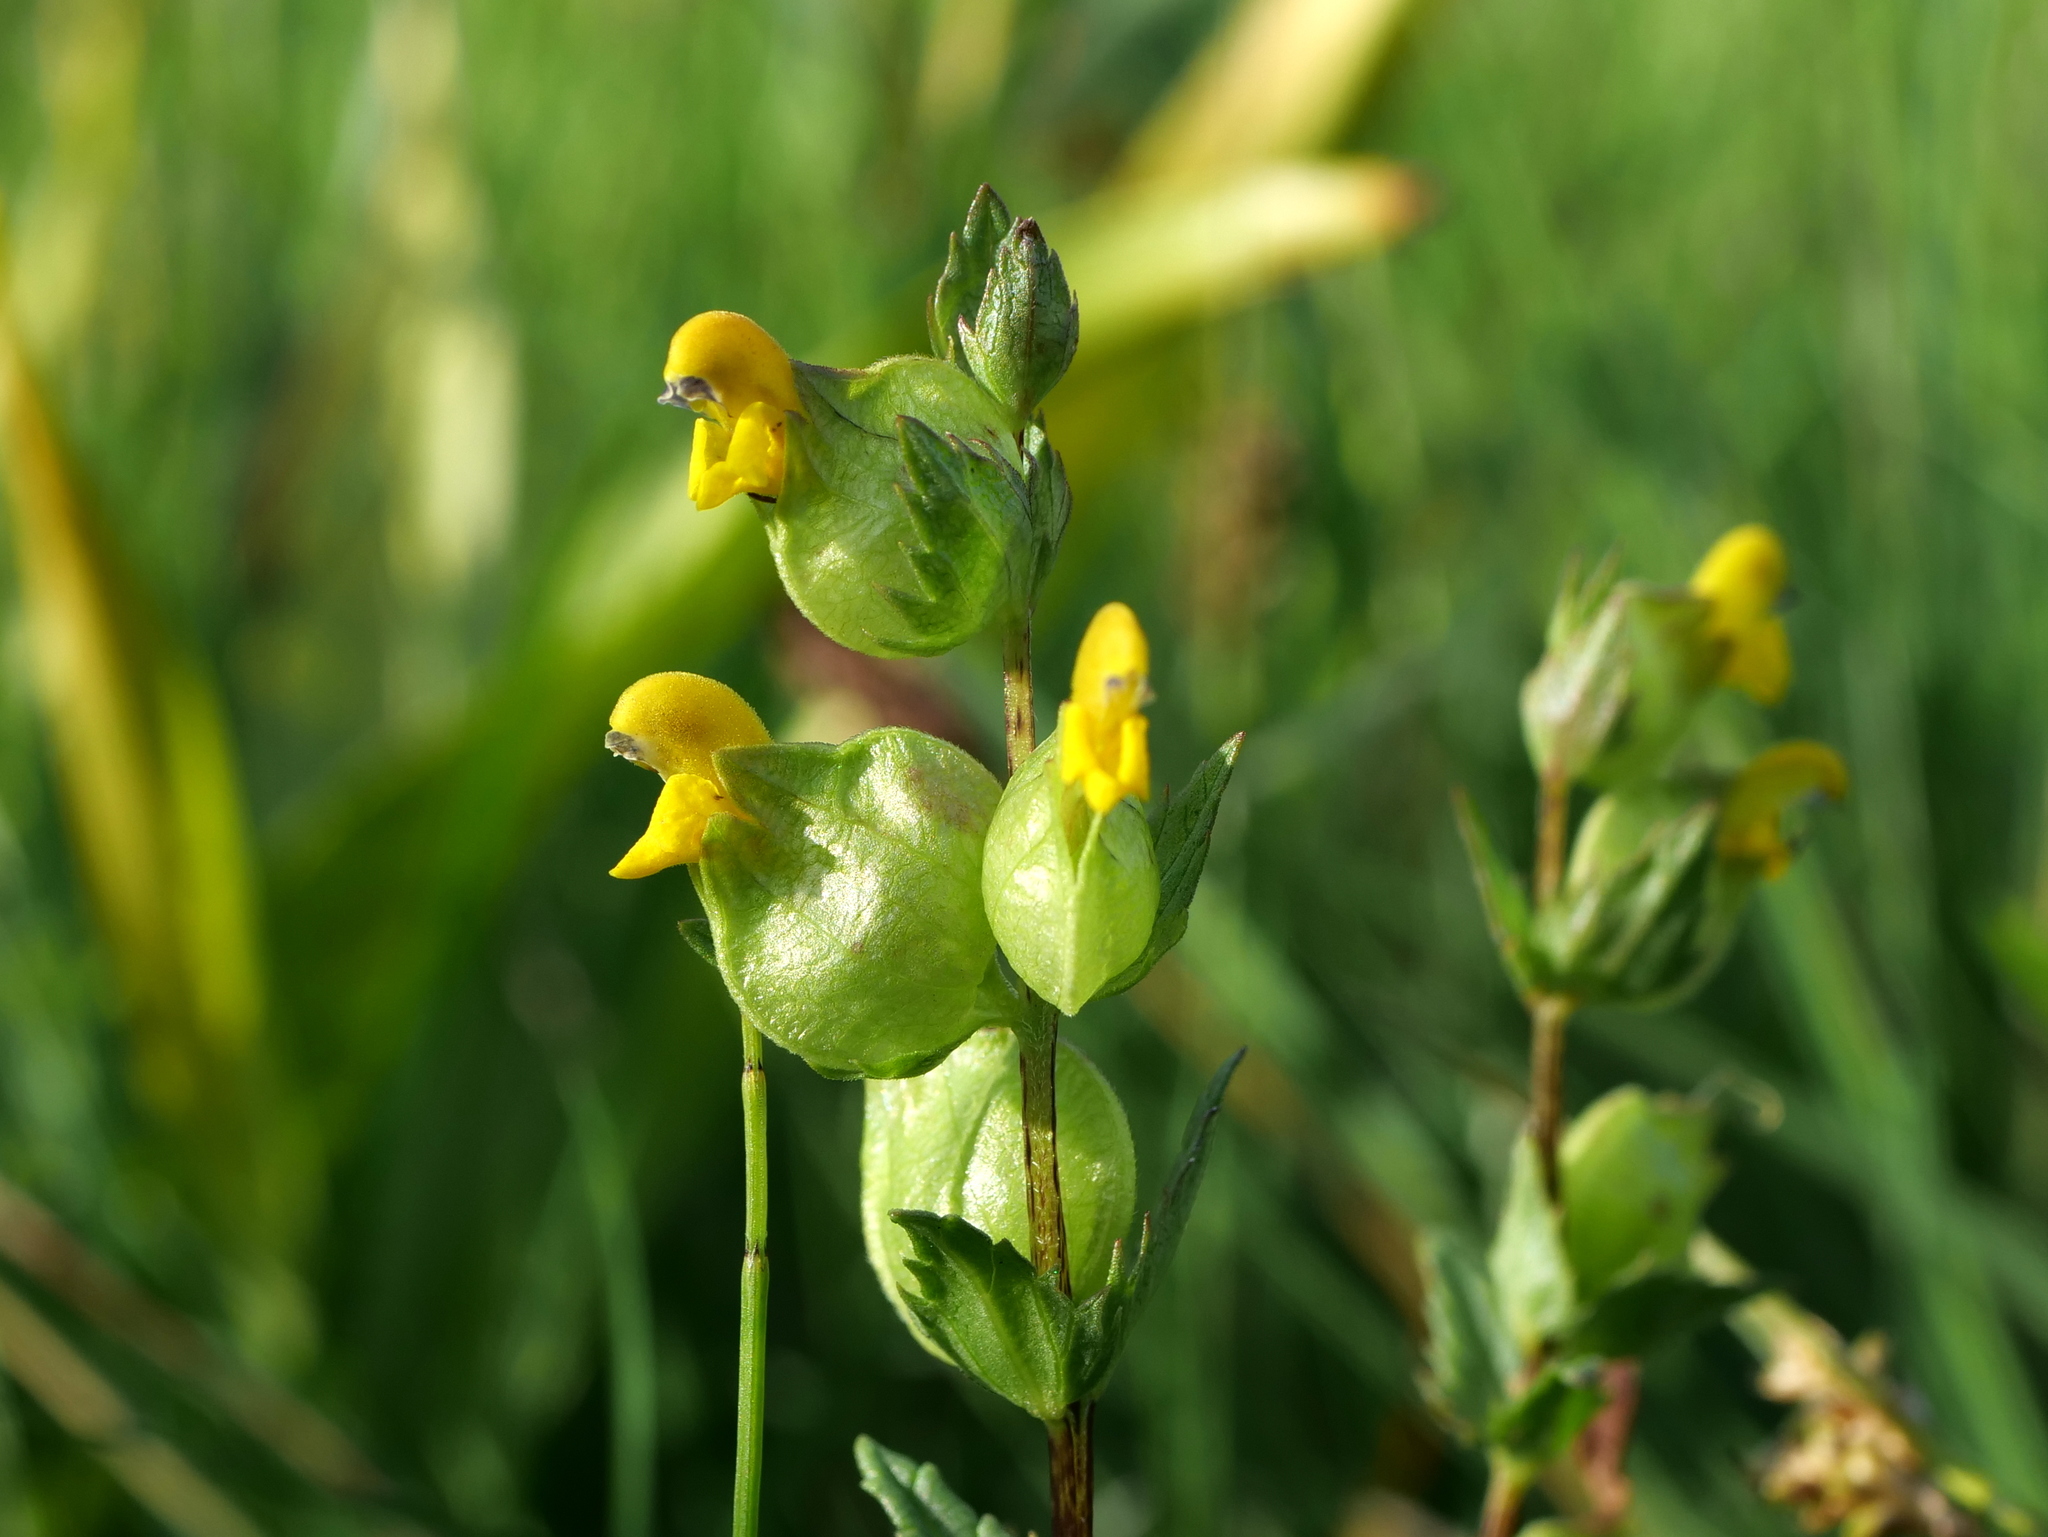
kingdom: Plantae
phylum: Tracheophyta
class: Magnoliopsida
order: Lamiales
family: Orobanchaceae
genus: Rhinanthus
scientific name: Rhinanthus minor
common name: Yellow-rattle
